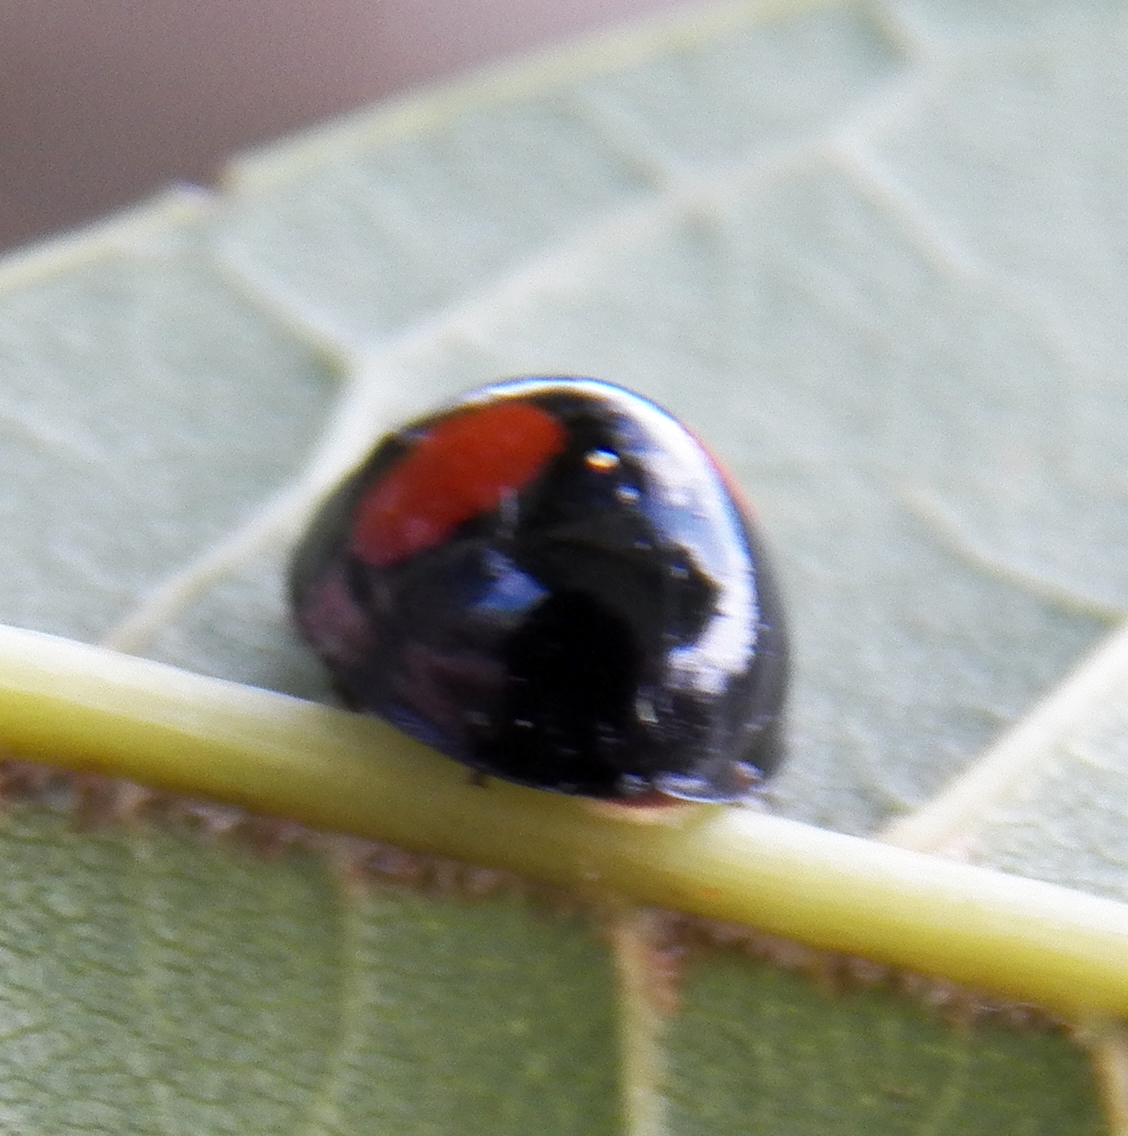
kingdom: Animalia
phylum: Arthropoda
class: Insecta
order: Coleoptera
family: Coccinellidae
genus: Chilocorus
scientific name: Chilocorus cacti
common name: Cactus lady beetle
